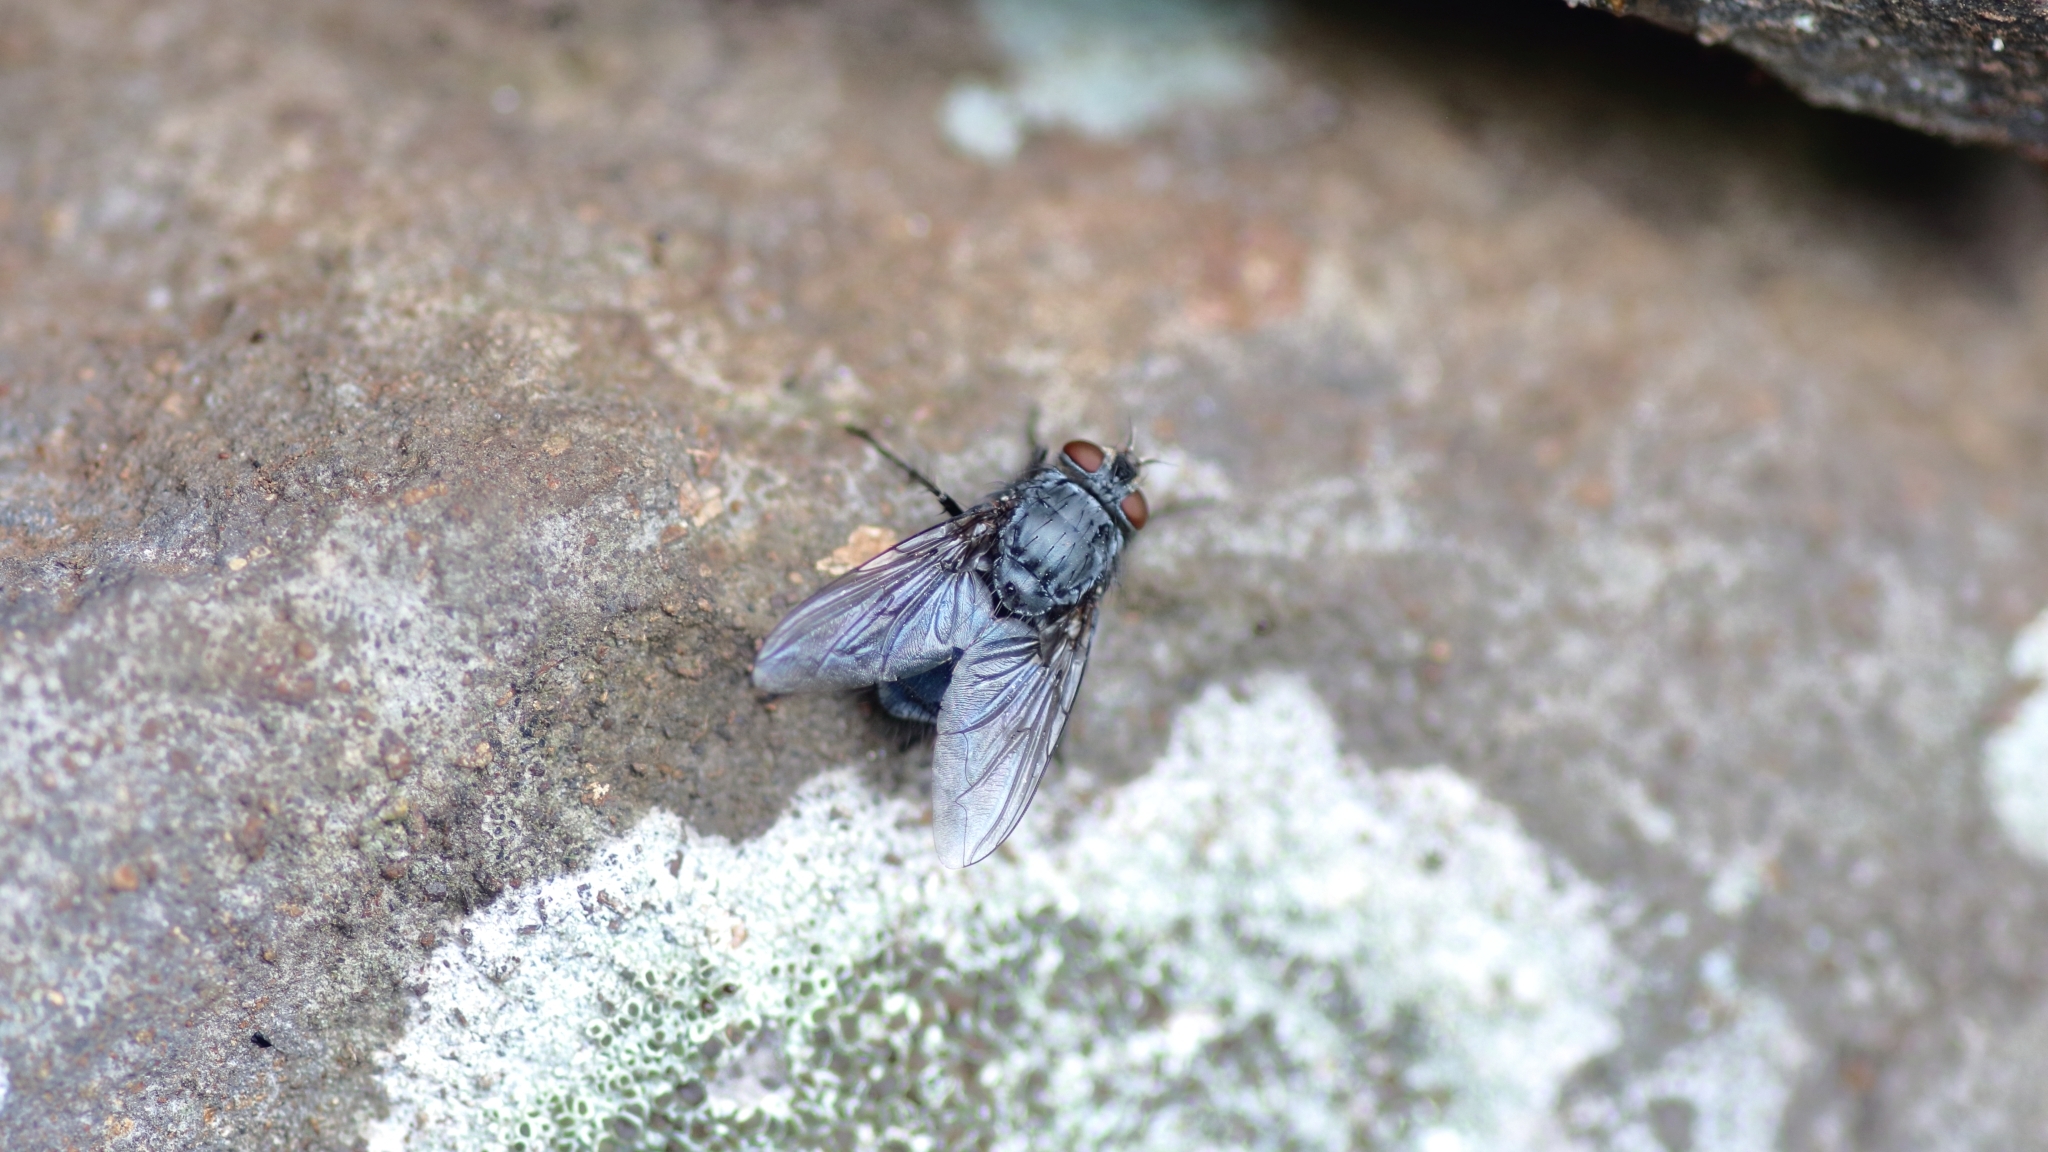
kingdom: Animalia
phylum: Arthropoda
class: Insecta
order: Diptera
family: Calliphoridae
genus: Calliphora
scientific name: Calliphora vicina
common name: Common blow flie
